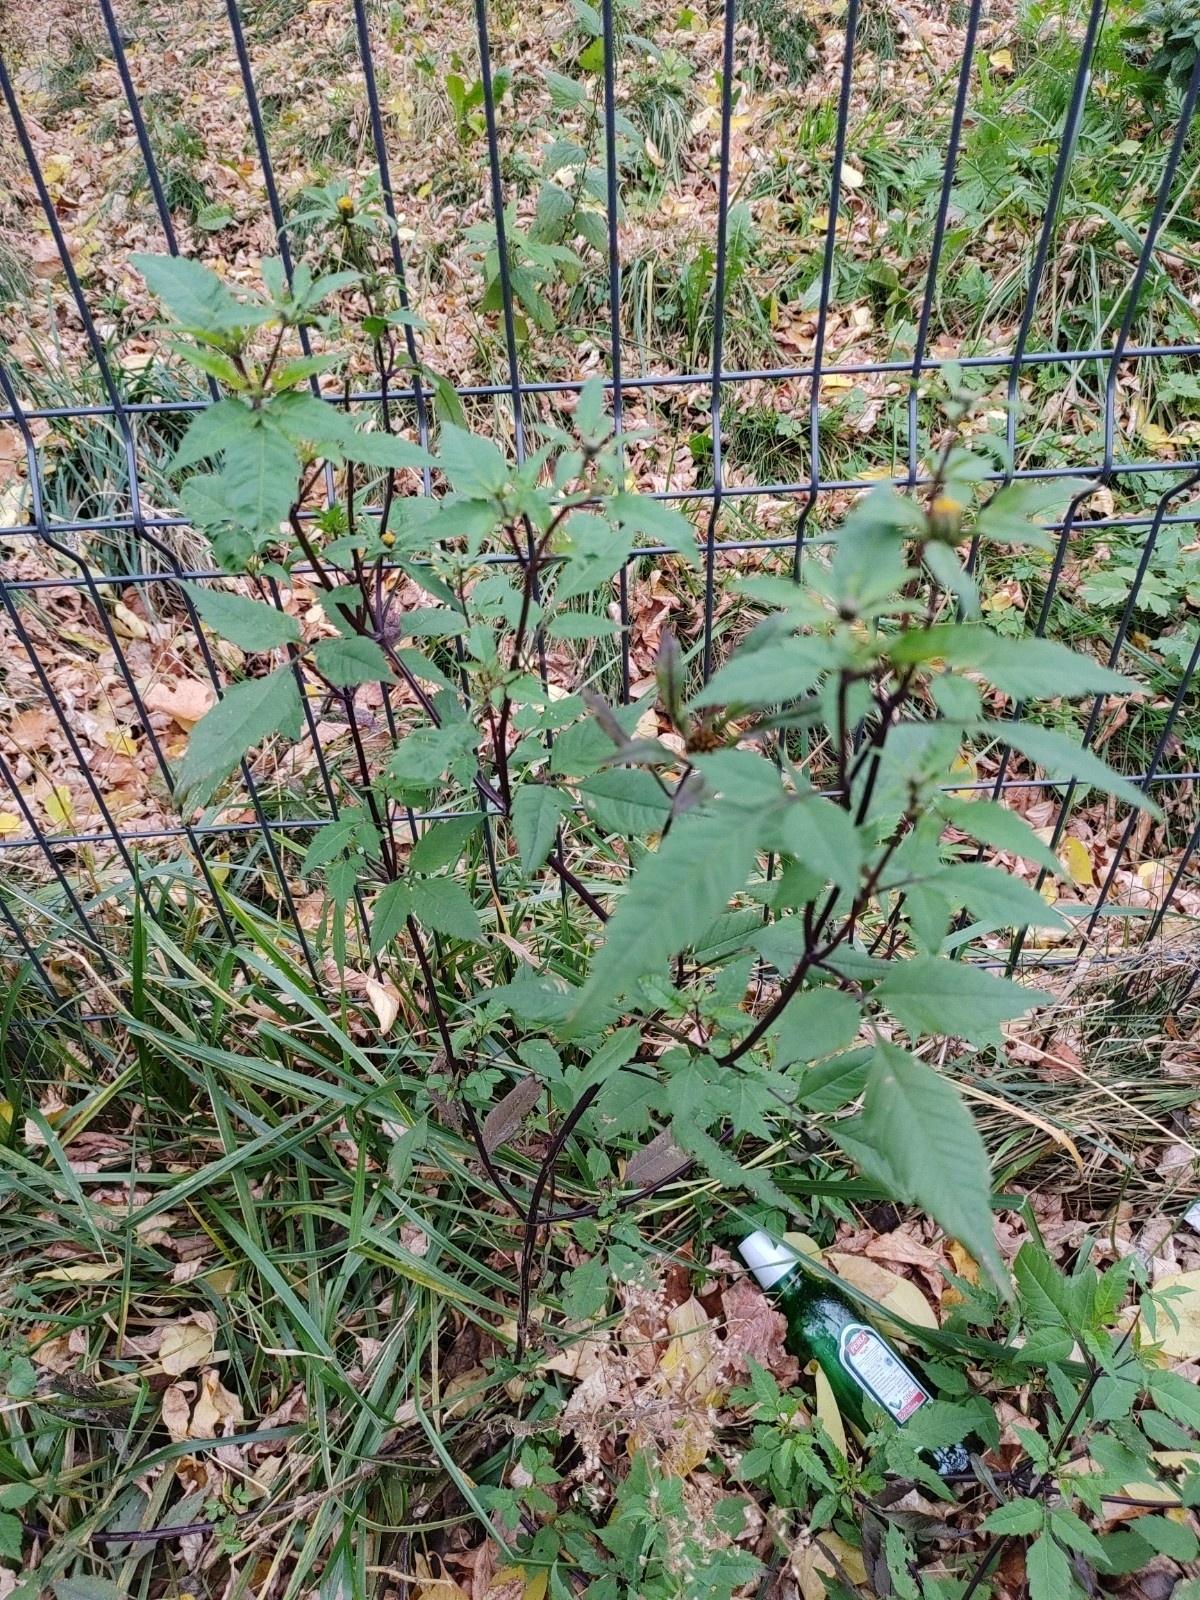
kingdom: Plantae
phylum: Tracheophyta
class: Magnoliopsida
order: Asterales
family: Asteraceae
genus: Bidens
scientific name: Bidens frondosa
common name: Beggarticks
